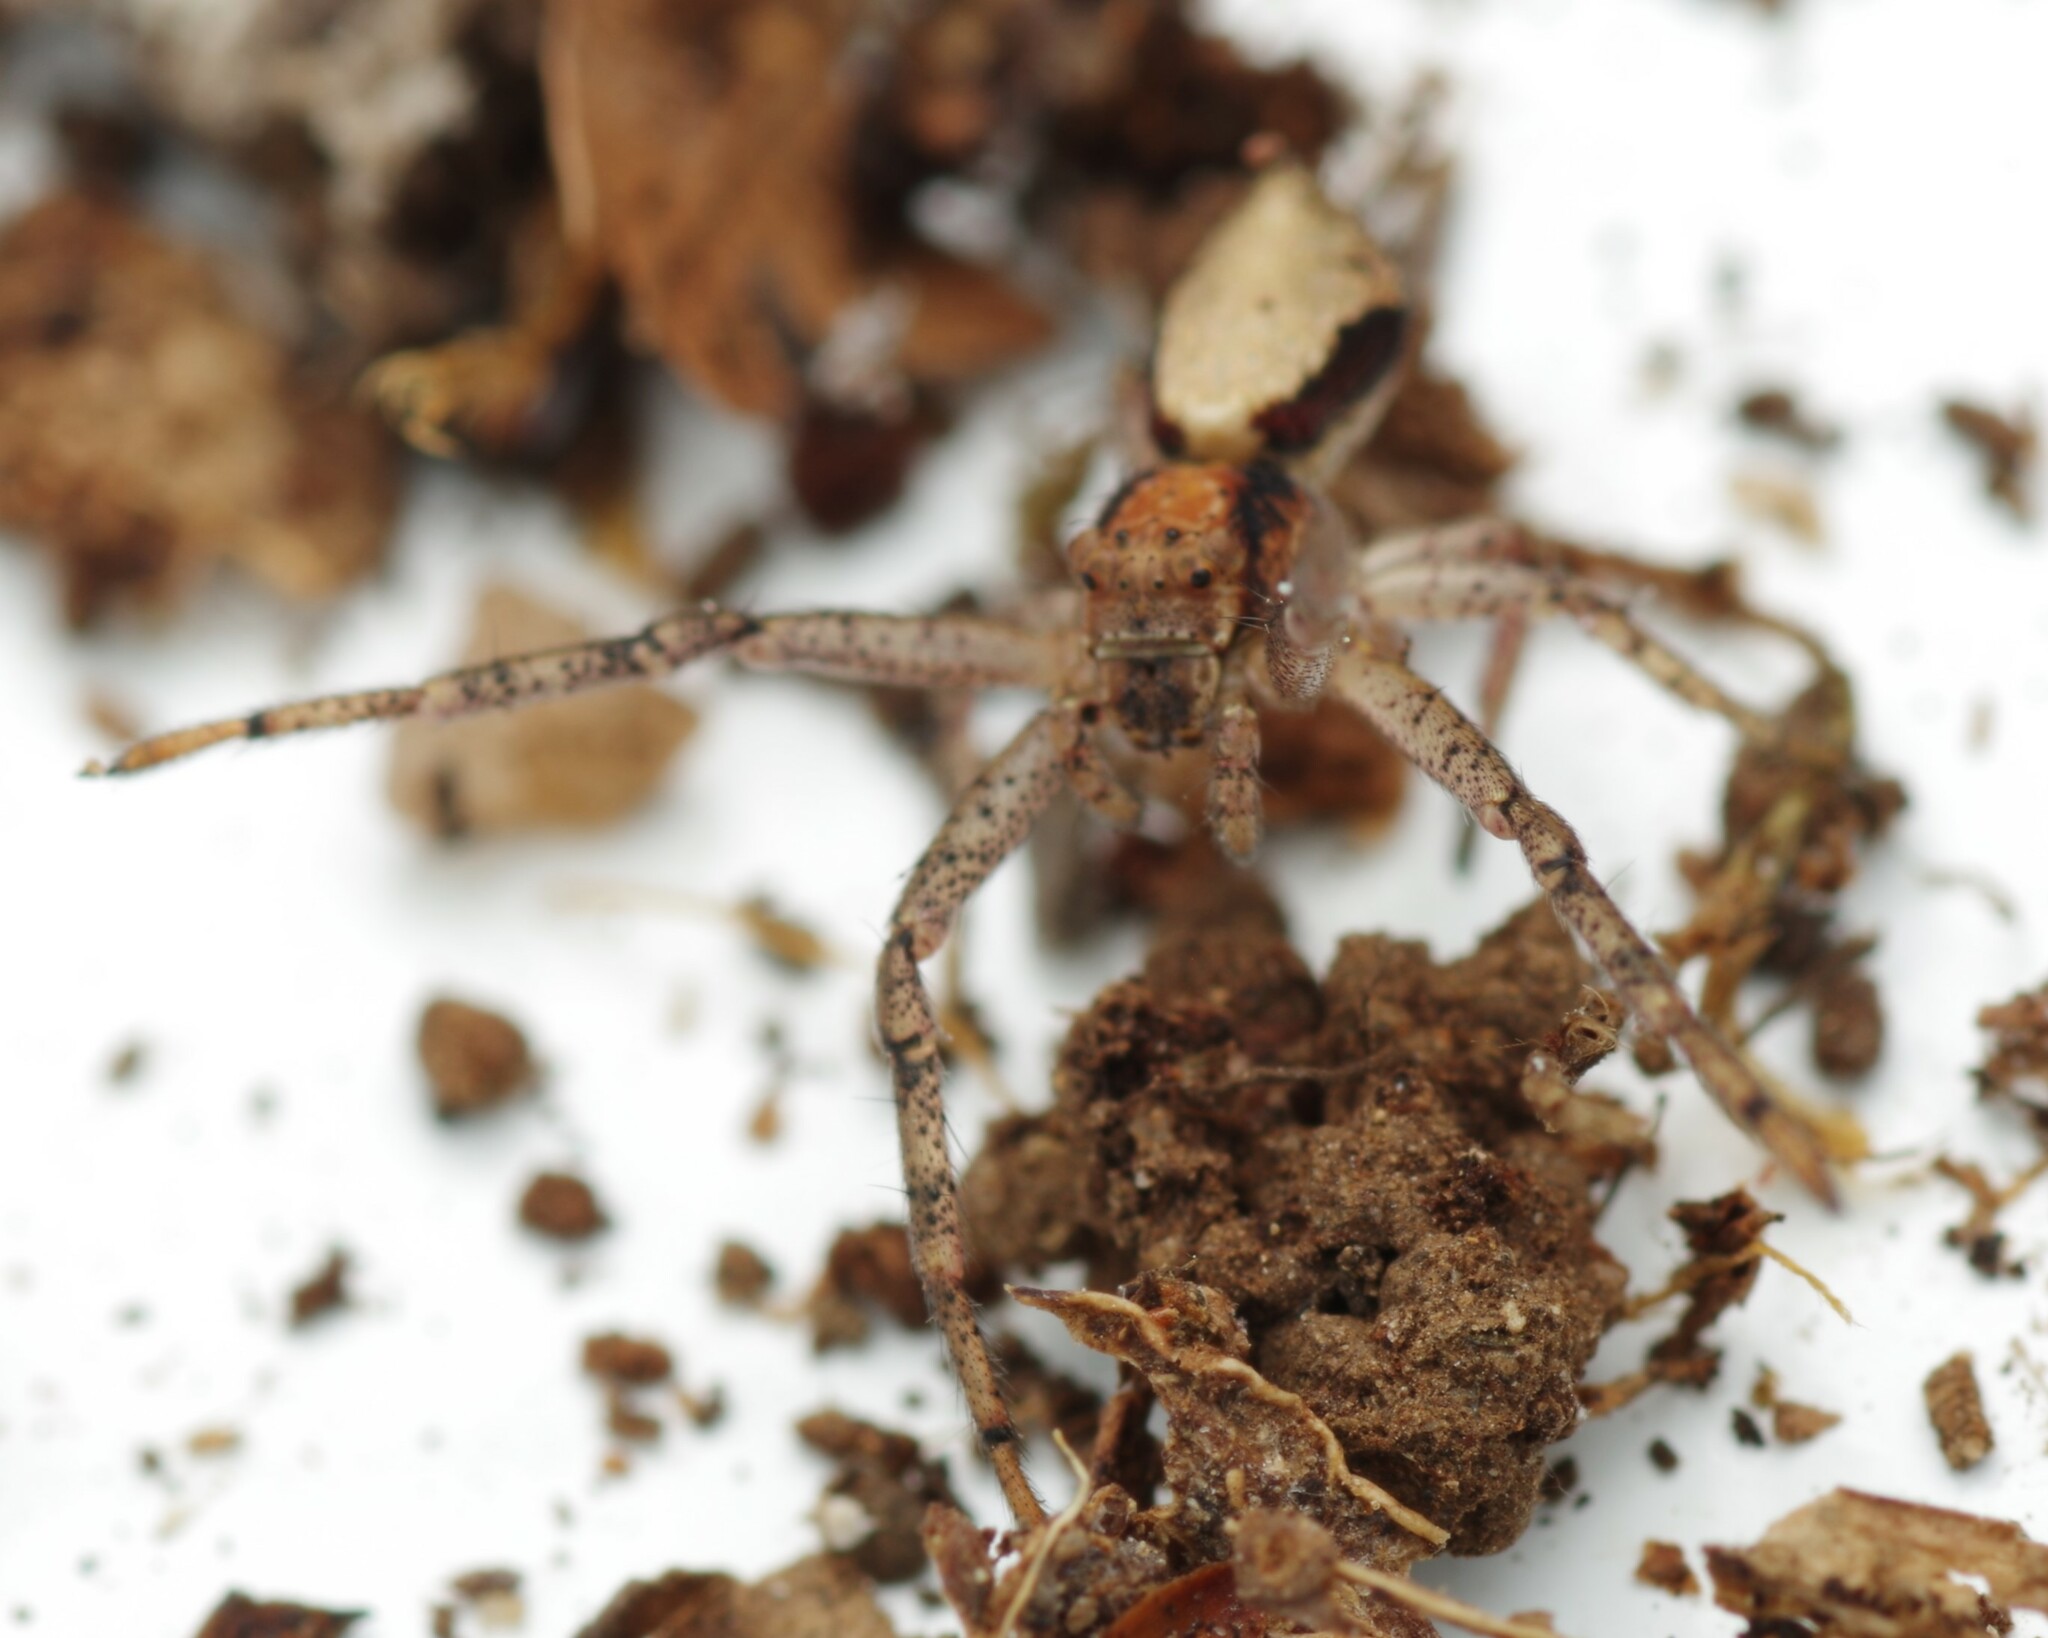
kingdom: Animalia
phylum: Arthropoda
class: Arachnida
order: Araneae
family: Thomisidae
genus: Tmarus
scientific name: Tmarus
